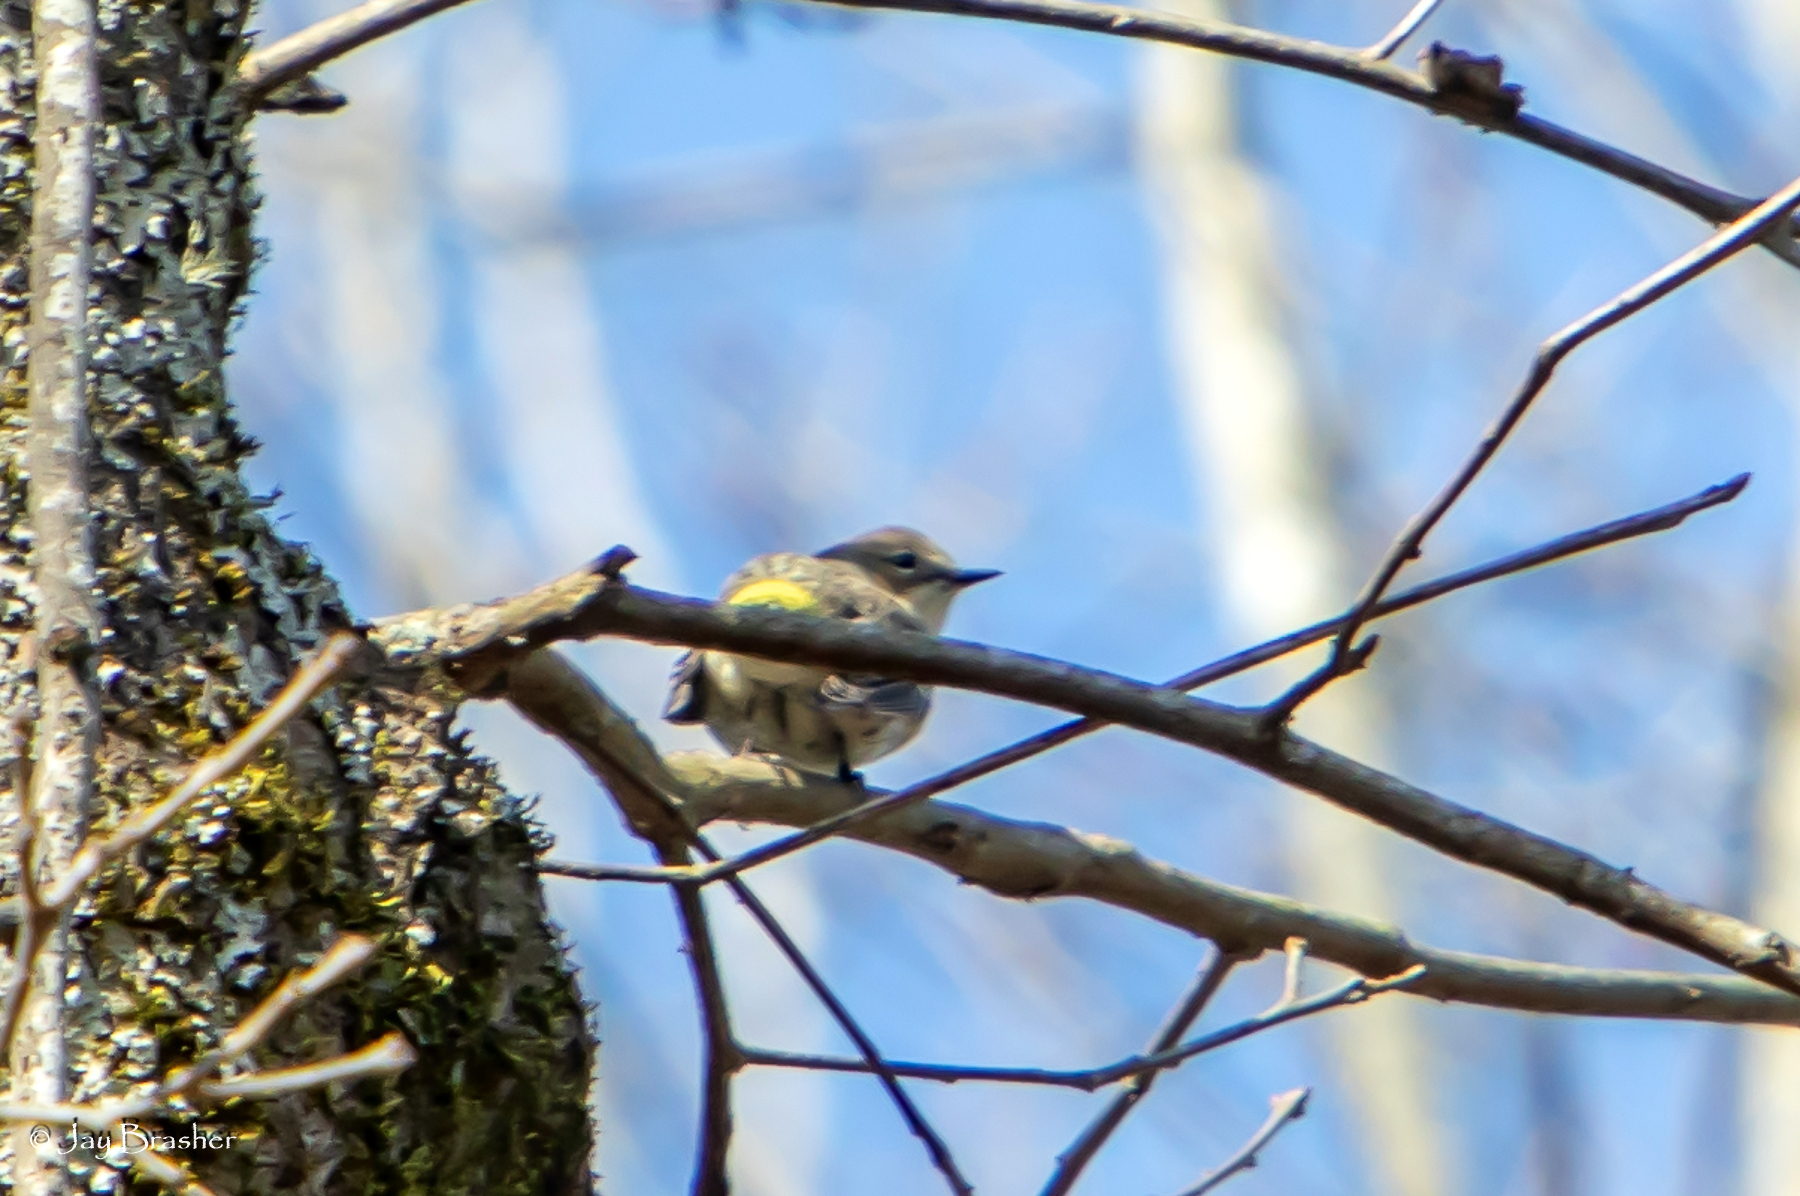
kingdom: Animalia
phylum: Chordata
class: Aves
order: Passeriformes
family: Parulidae
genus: Setophaga
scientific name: Setophaga coronata
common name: Myrtle warbler
